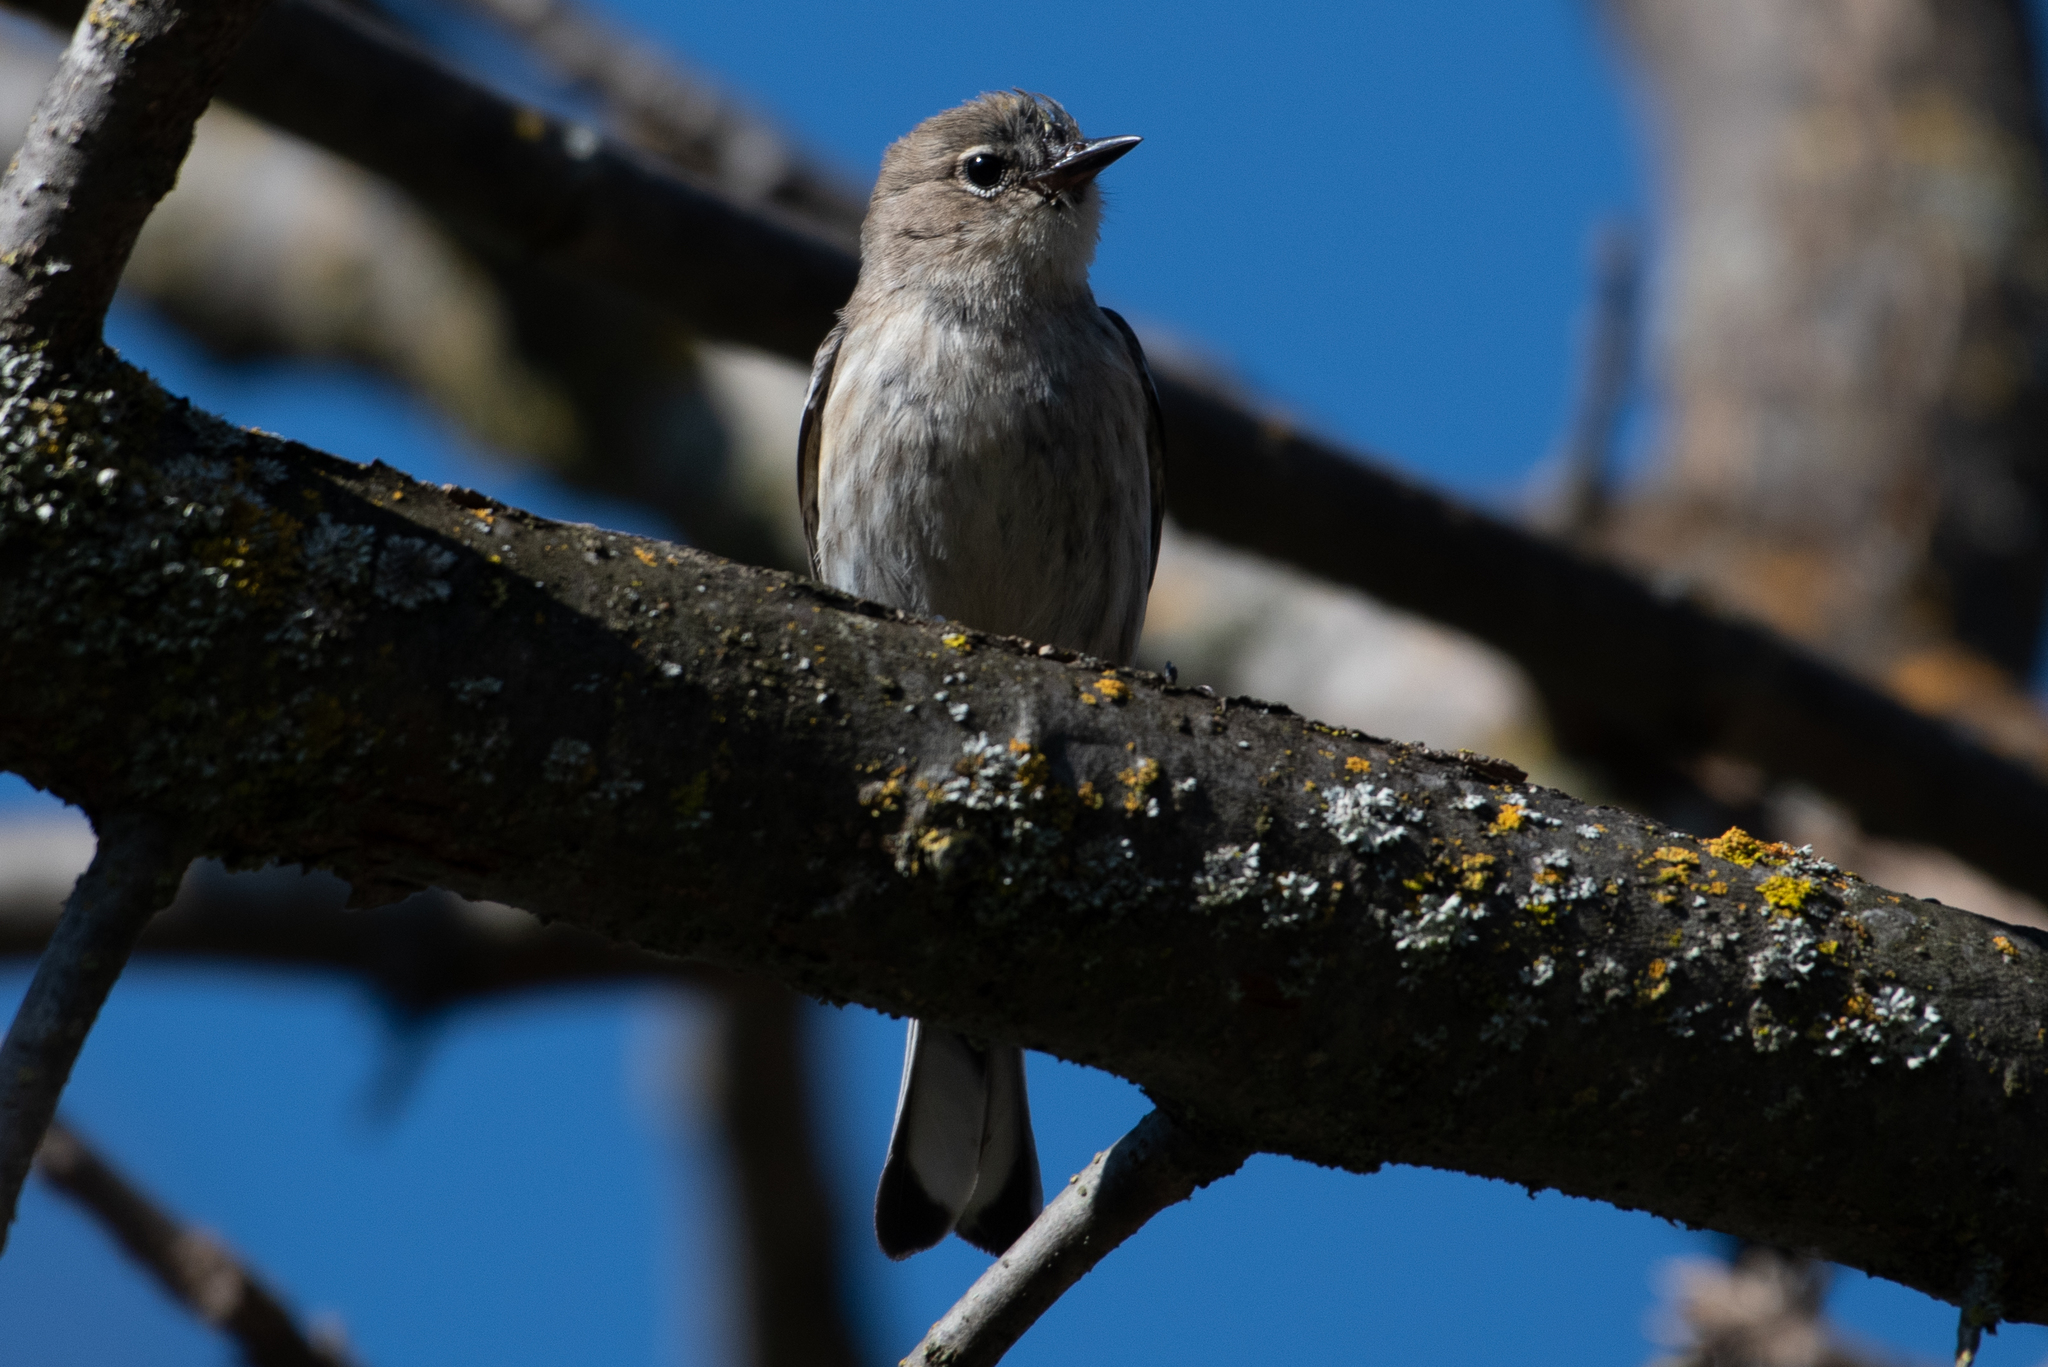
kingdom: Animalia
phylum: Chordata
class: Aves
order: Passeriformes
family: Parulidae
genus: Setophaga
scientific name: Setophaga coronata
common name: Myrtle warbler
